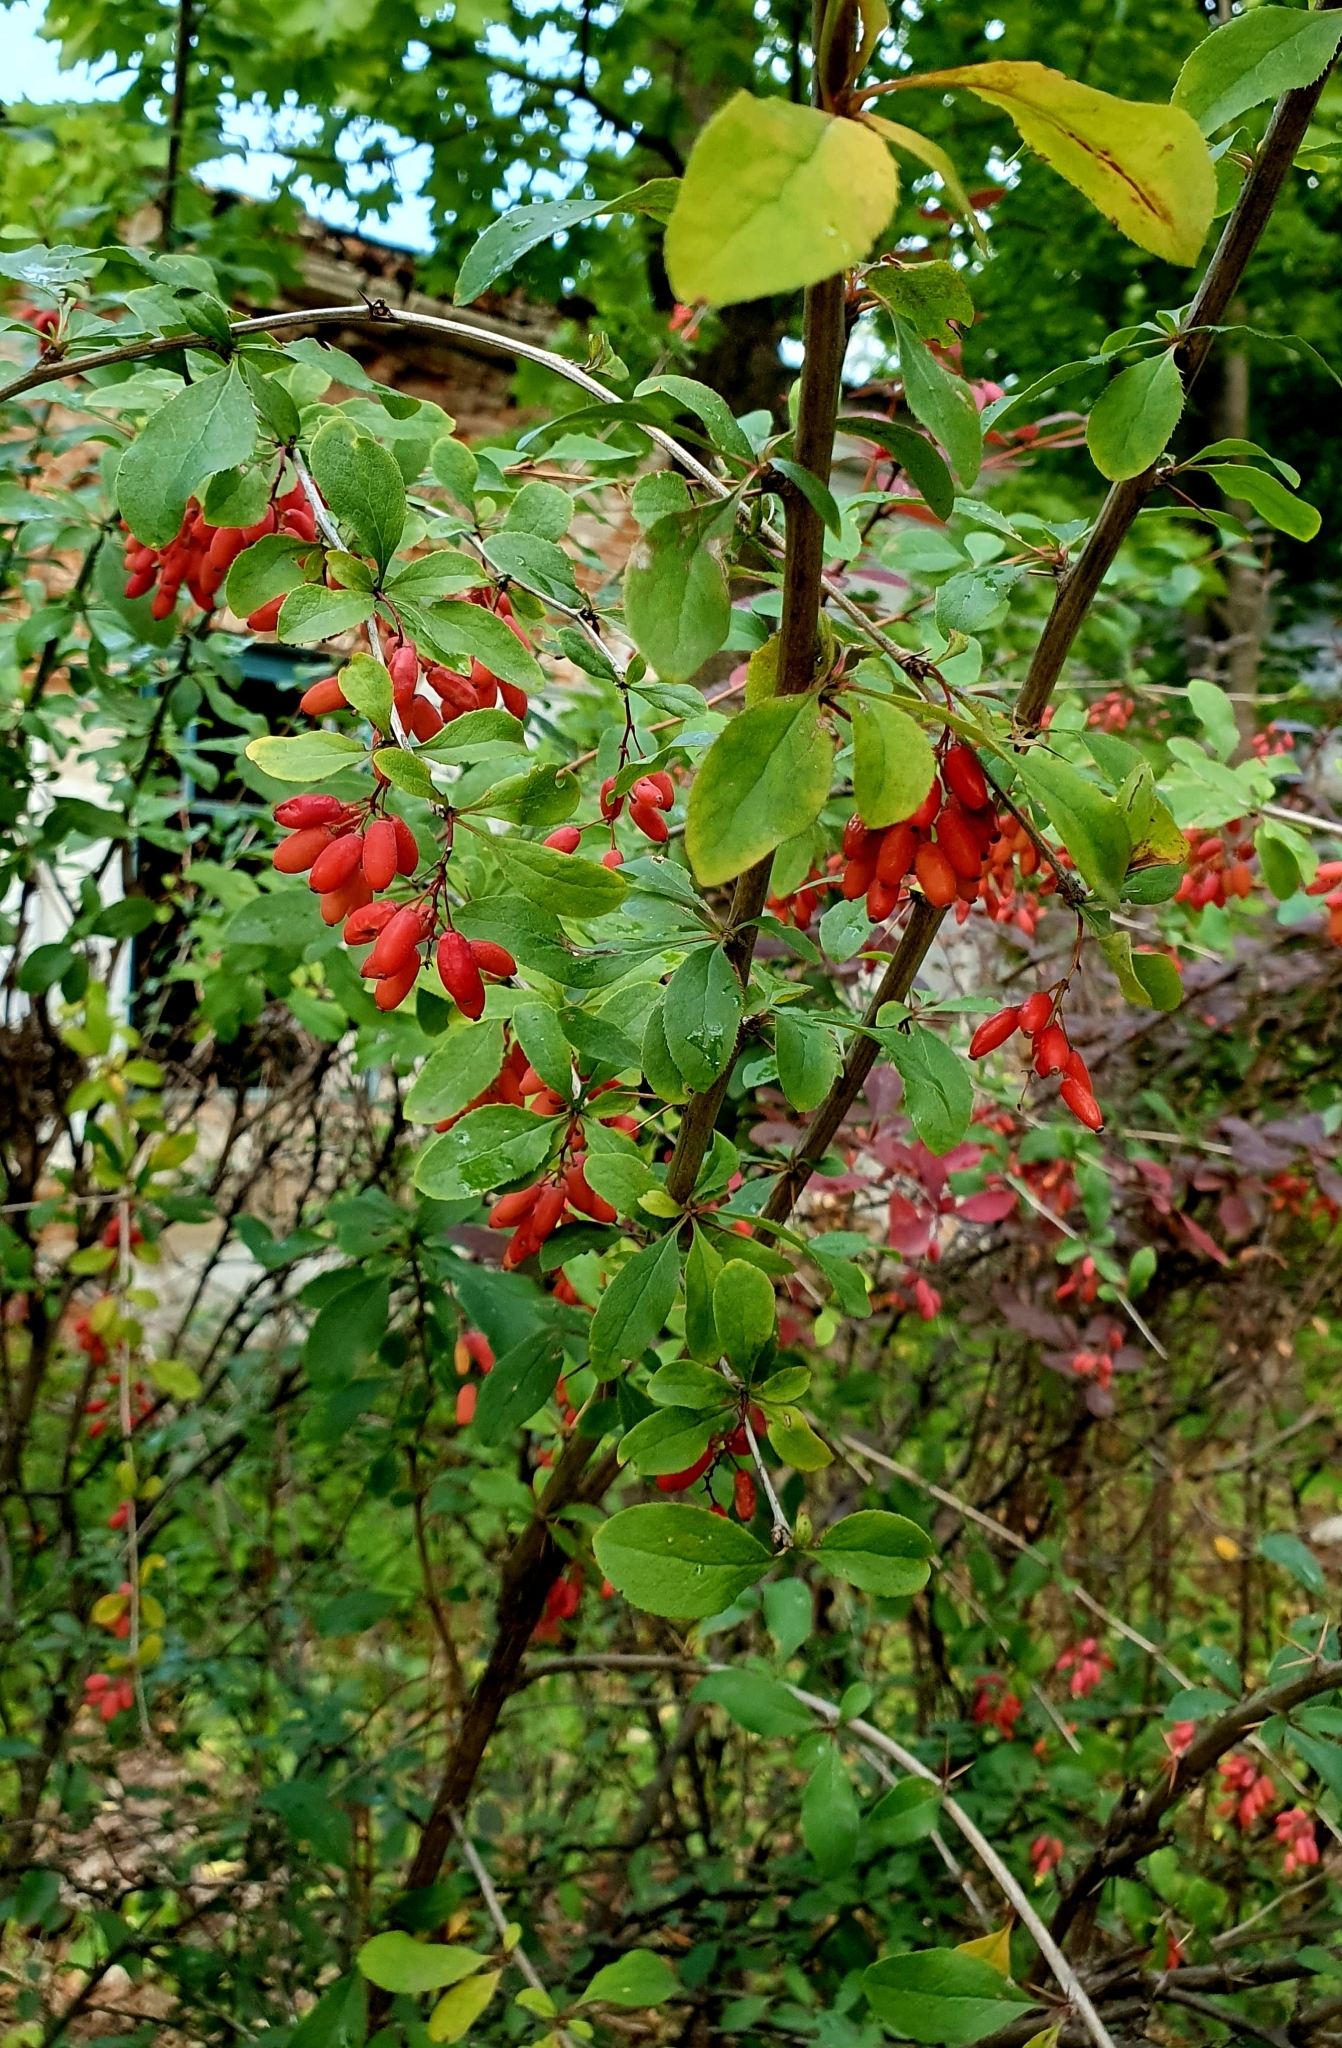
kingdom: Plantae
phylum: Tracheophyta
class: Magnoliopsida
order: Ranunculales
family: Berberidaceae
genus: Berberis
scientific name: Berberis vulgaris
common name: Barberry
